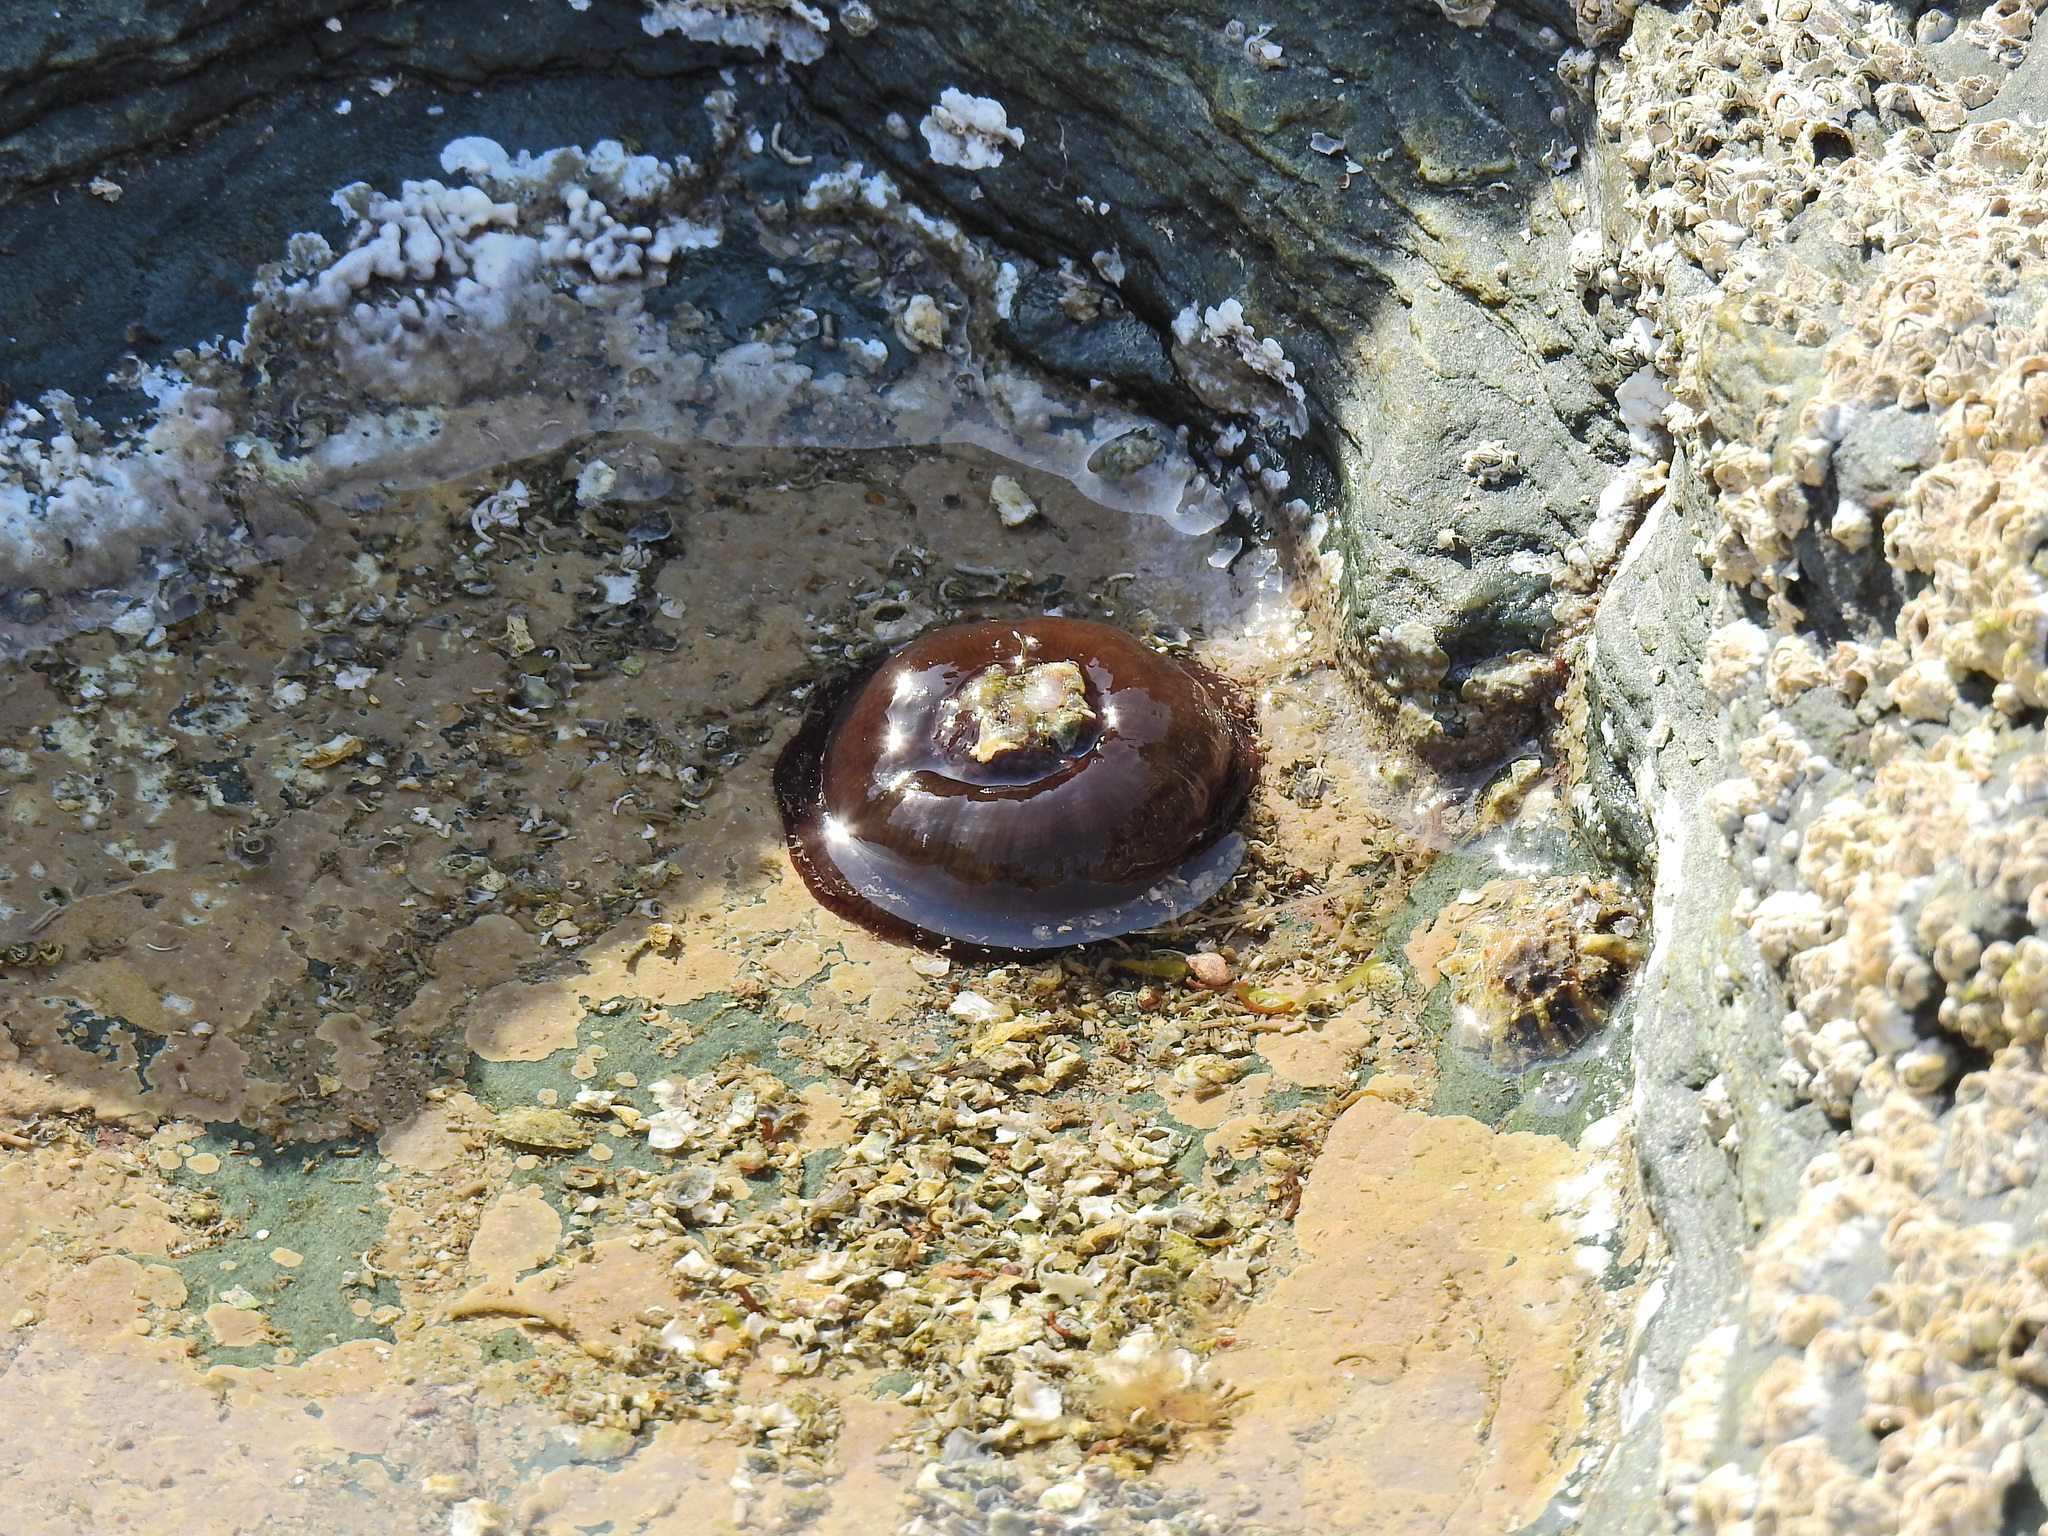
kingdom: Animalia
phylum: Cnidaria
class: Anthozoa
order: Actiniaria
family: Actiniidae
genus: Actinia
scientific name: Actinia equina
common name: Beadlet anemone
